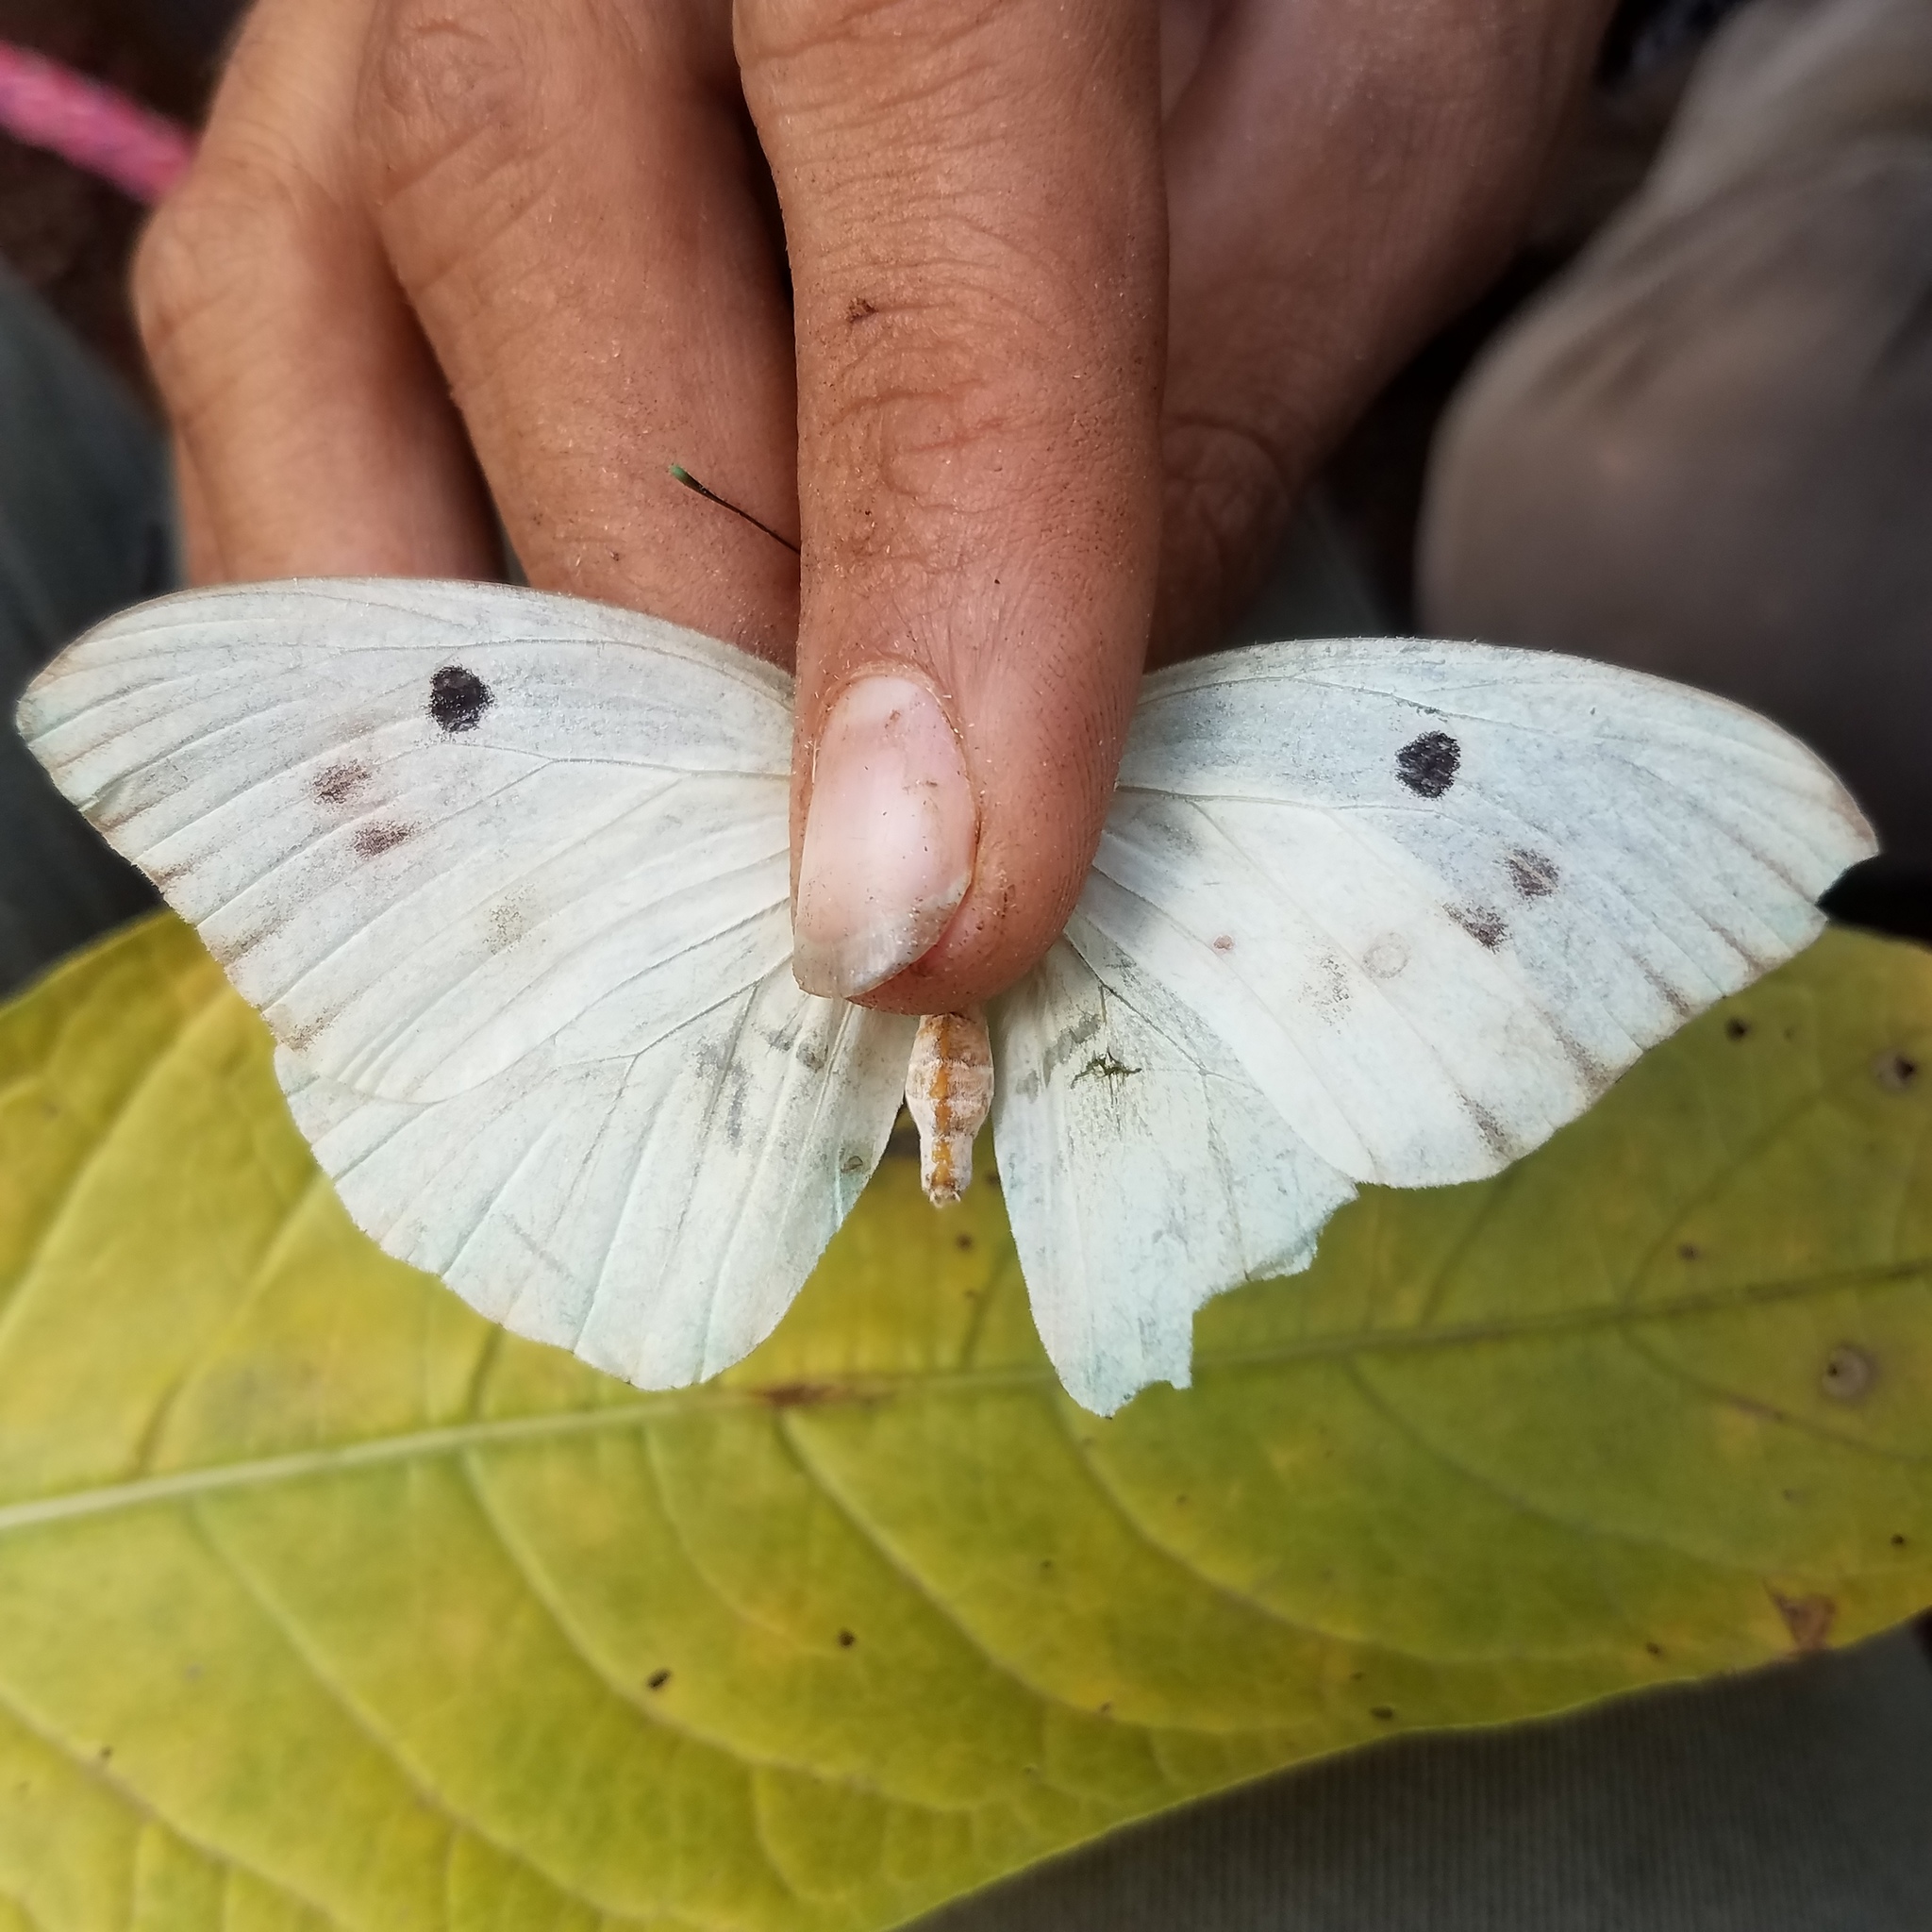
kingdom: Animalia
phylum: Arthropoda
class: Insecta
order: Lepidoptera
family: Pieridae
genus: Ganyra
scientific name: Ganyra josephina
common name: Giant white
